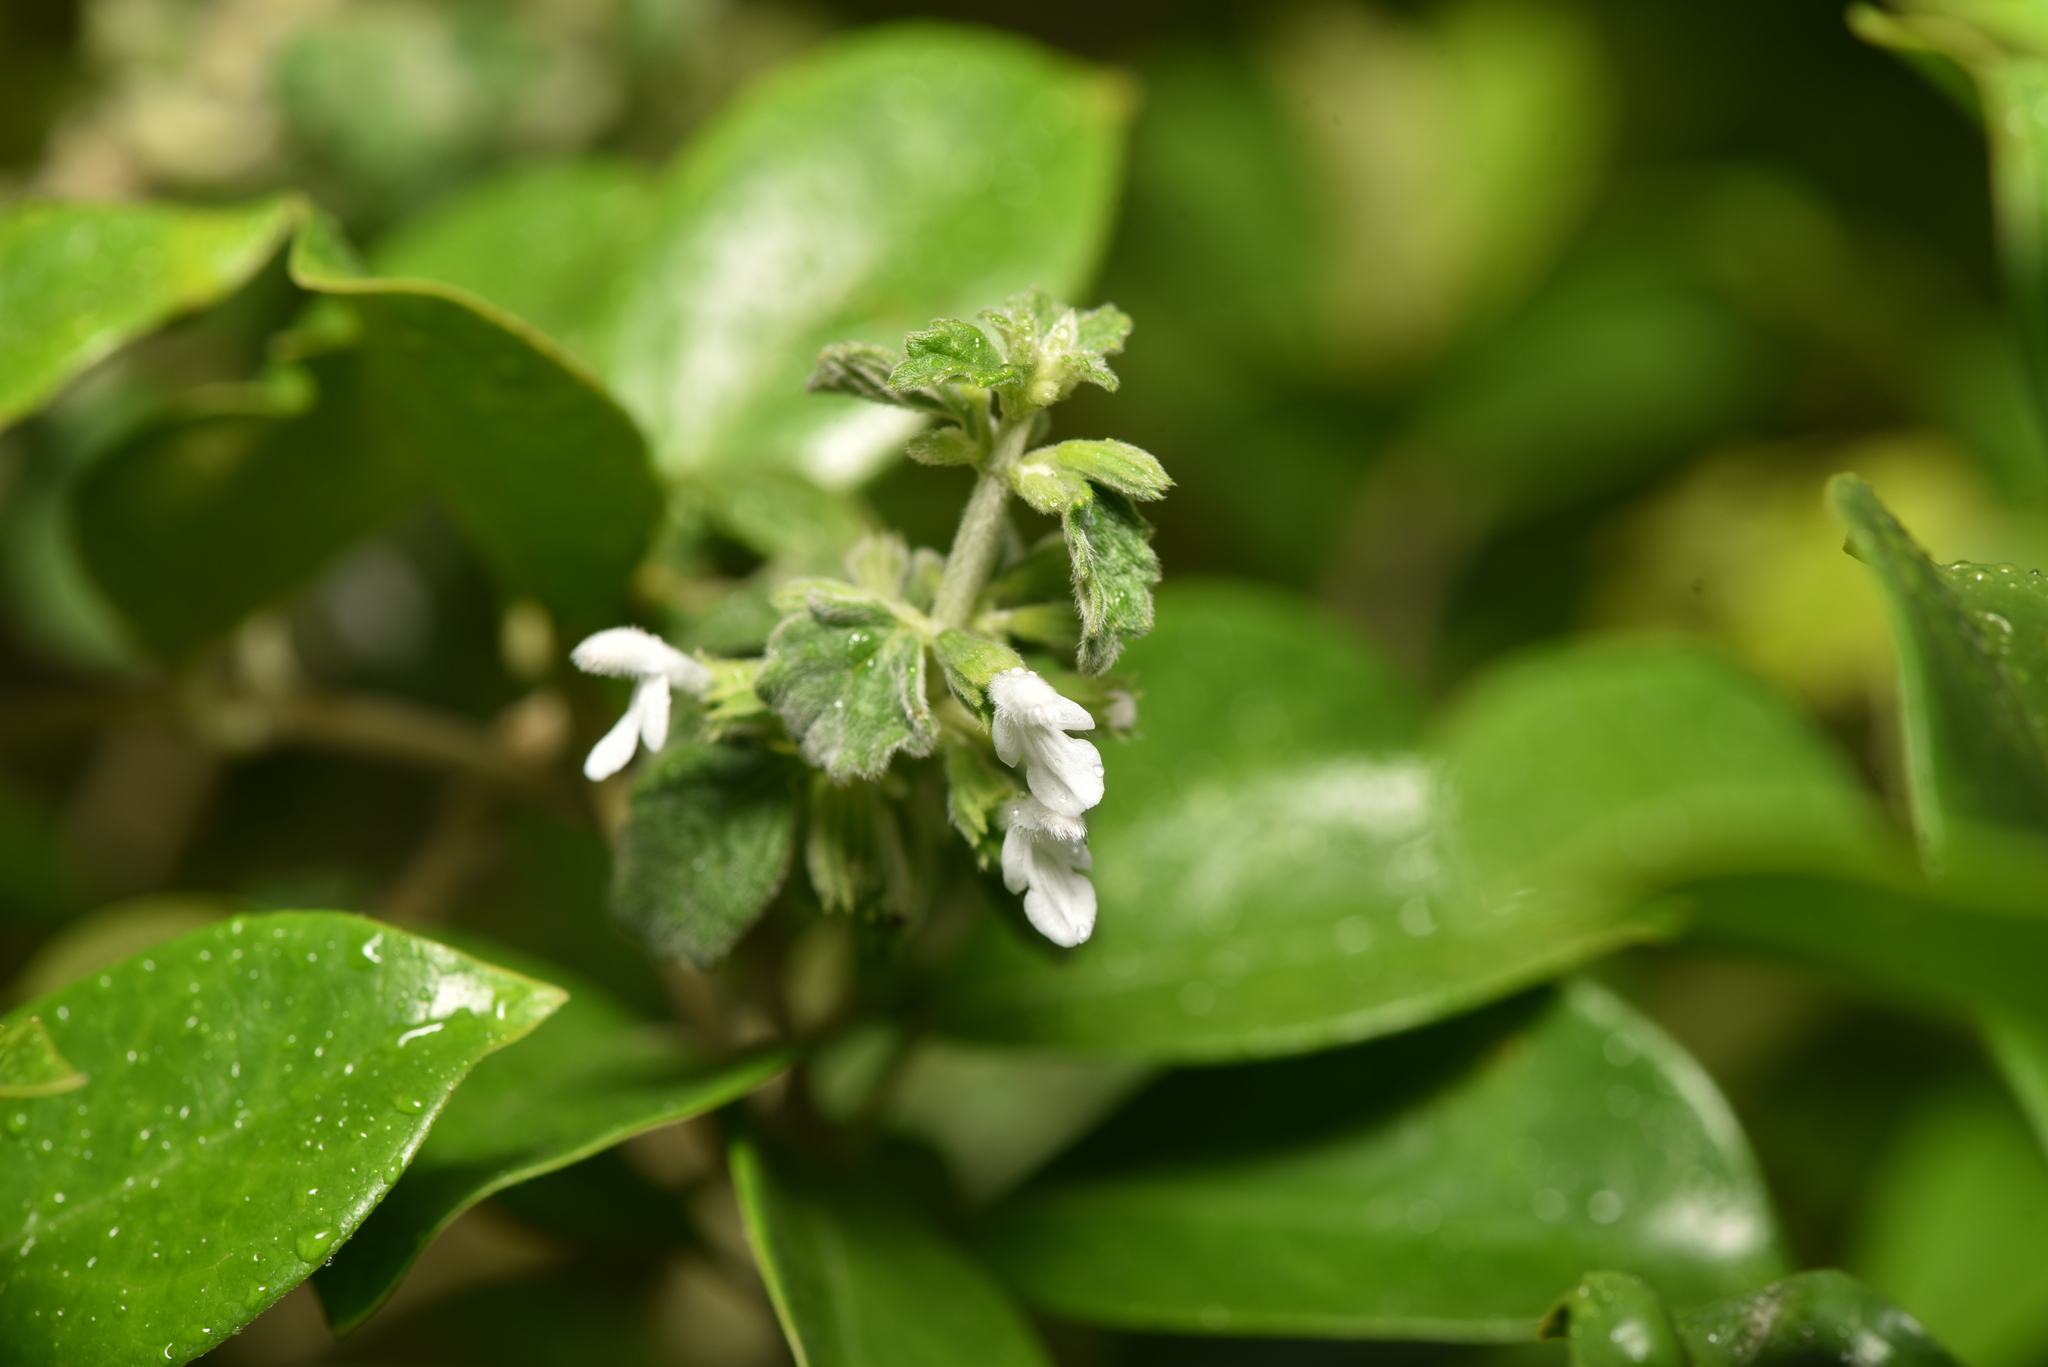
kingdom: Plantae
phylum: Tracheophyta
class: Magnoliopsida
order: Lamiales
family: Lamiaceae
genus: Leucas
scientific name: Leucas chinensis
